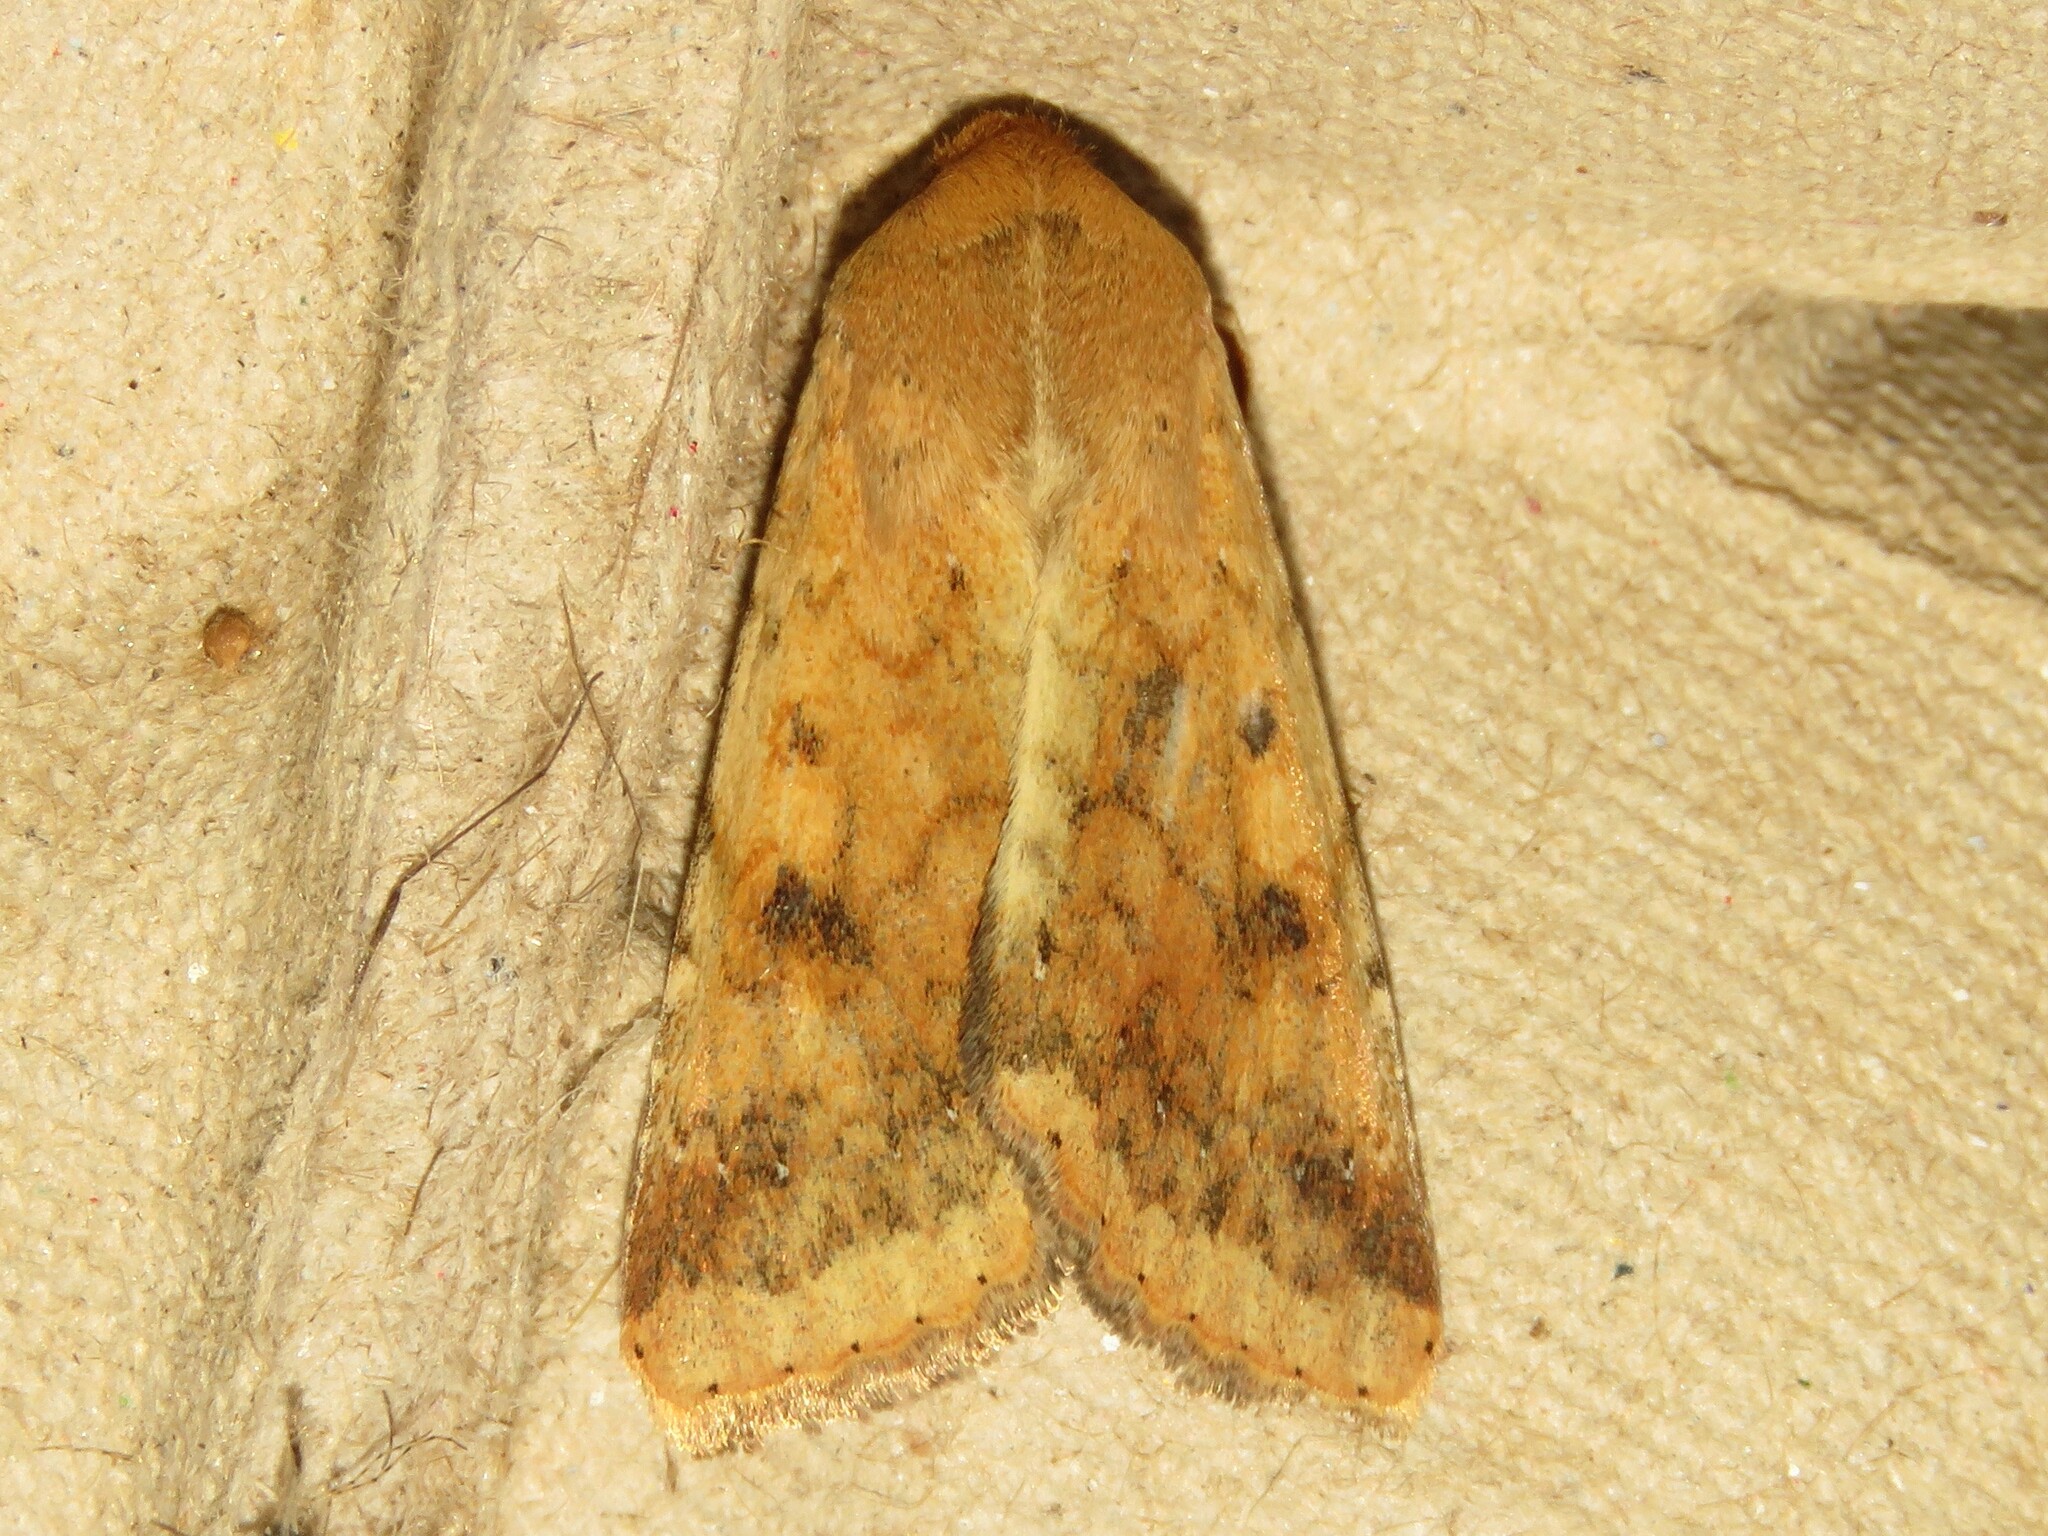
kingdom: Animalia
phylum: Arthropoda
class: Insecta
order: Lepidoptera
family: Noctuidae
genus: Helicoverpa
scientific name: Helicoverpa zea
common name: Bollworm
